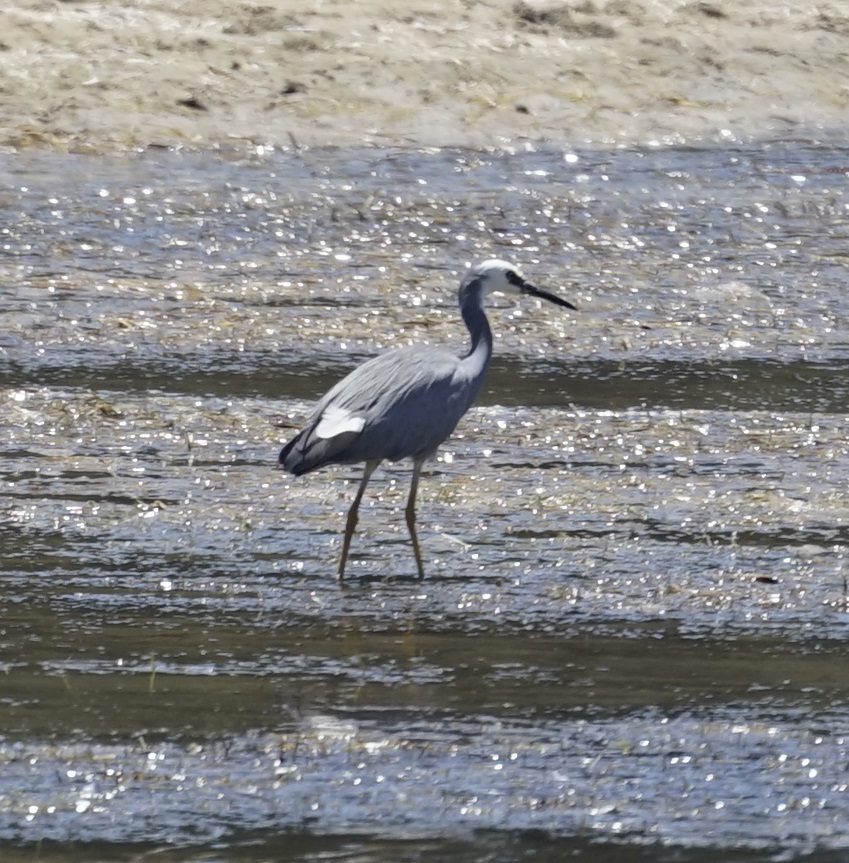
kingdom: Animalia
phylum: Chordata
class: Aves
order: Pelecaniformes
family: Ardeidae
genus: Egretta
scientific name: Egretta novaehollandiae
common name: White-faced heron
